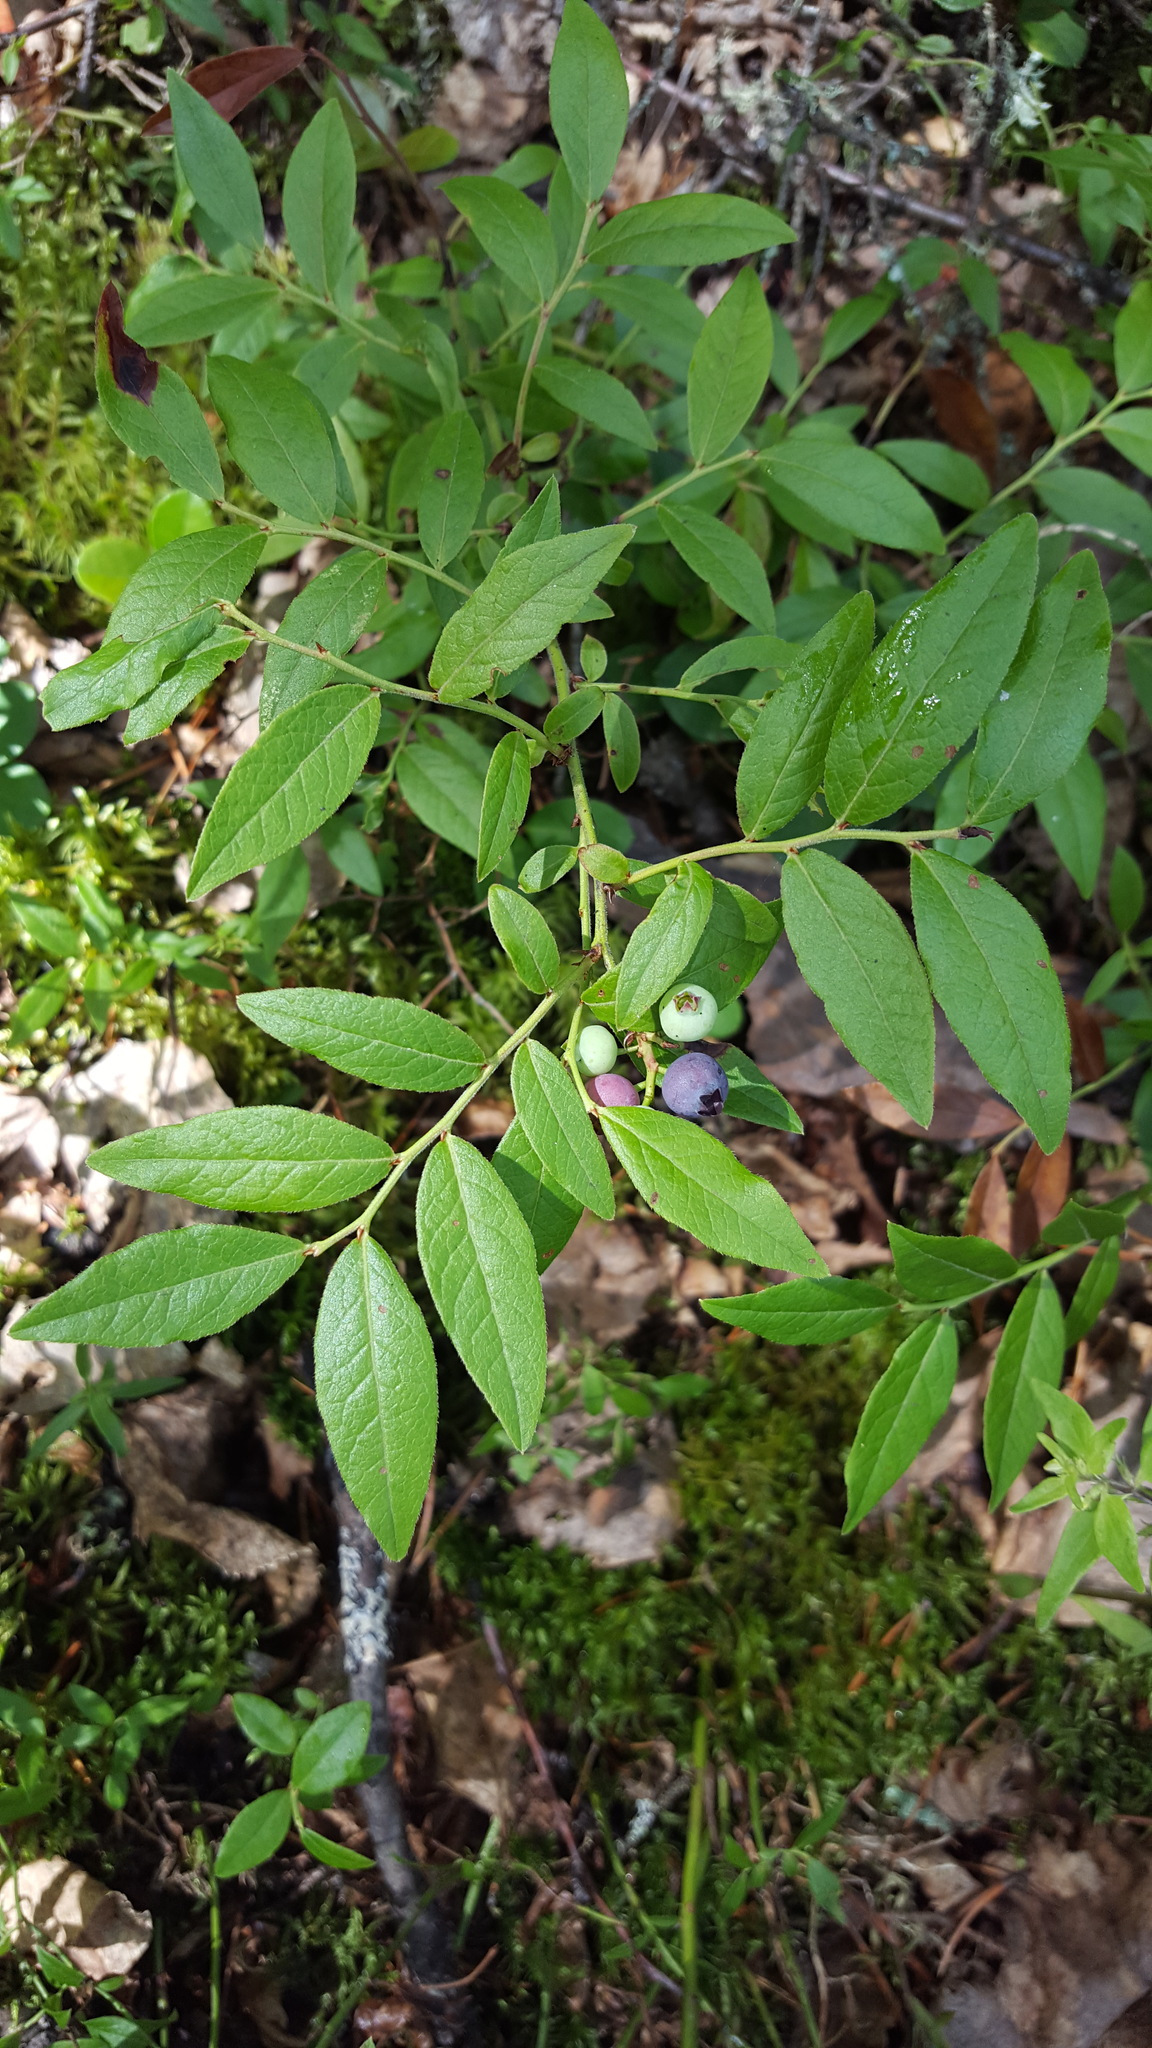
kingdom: Plantae
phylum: Tracheophyta
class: Magnoliopsida
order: Ericales
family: Ericaceae
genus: Vaccinium
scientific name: Vaccinium angustifolium
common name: Early lowbush blueberry
